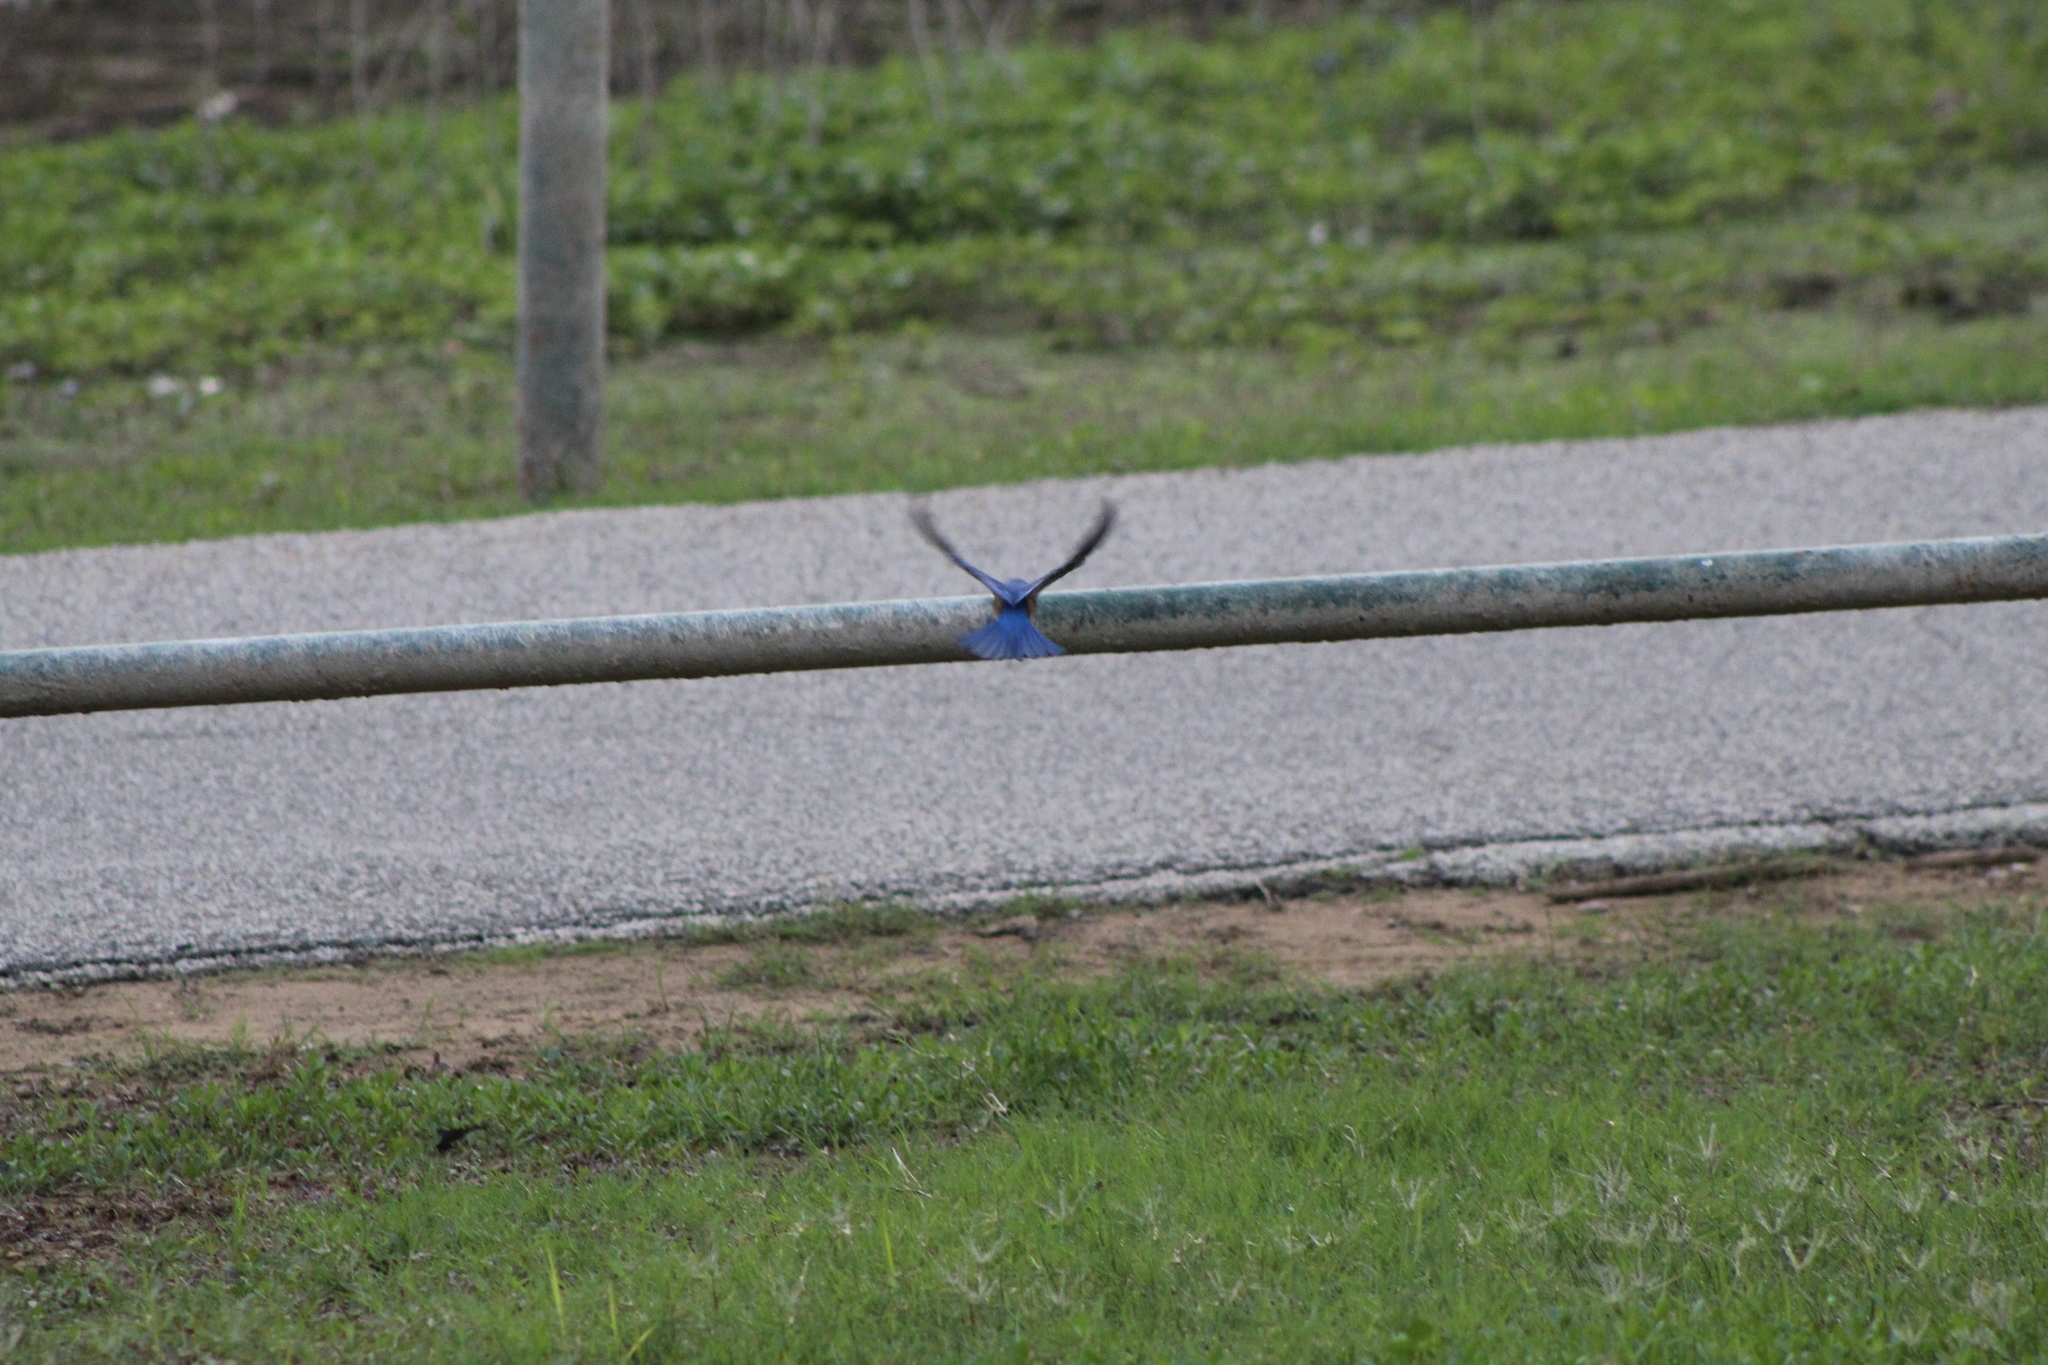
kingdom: Animalia
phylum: Chordata
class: Aves
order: Passeriformes
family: Turdidae
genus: Sialia
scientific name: Sialia sialis
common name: Eastern bluebird
